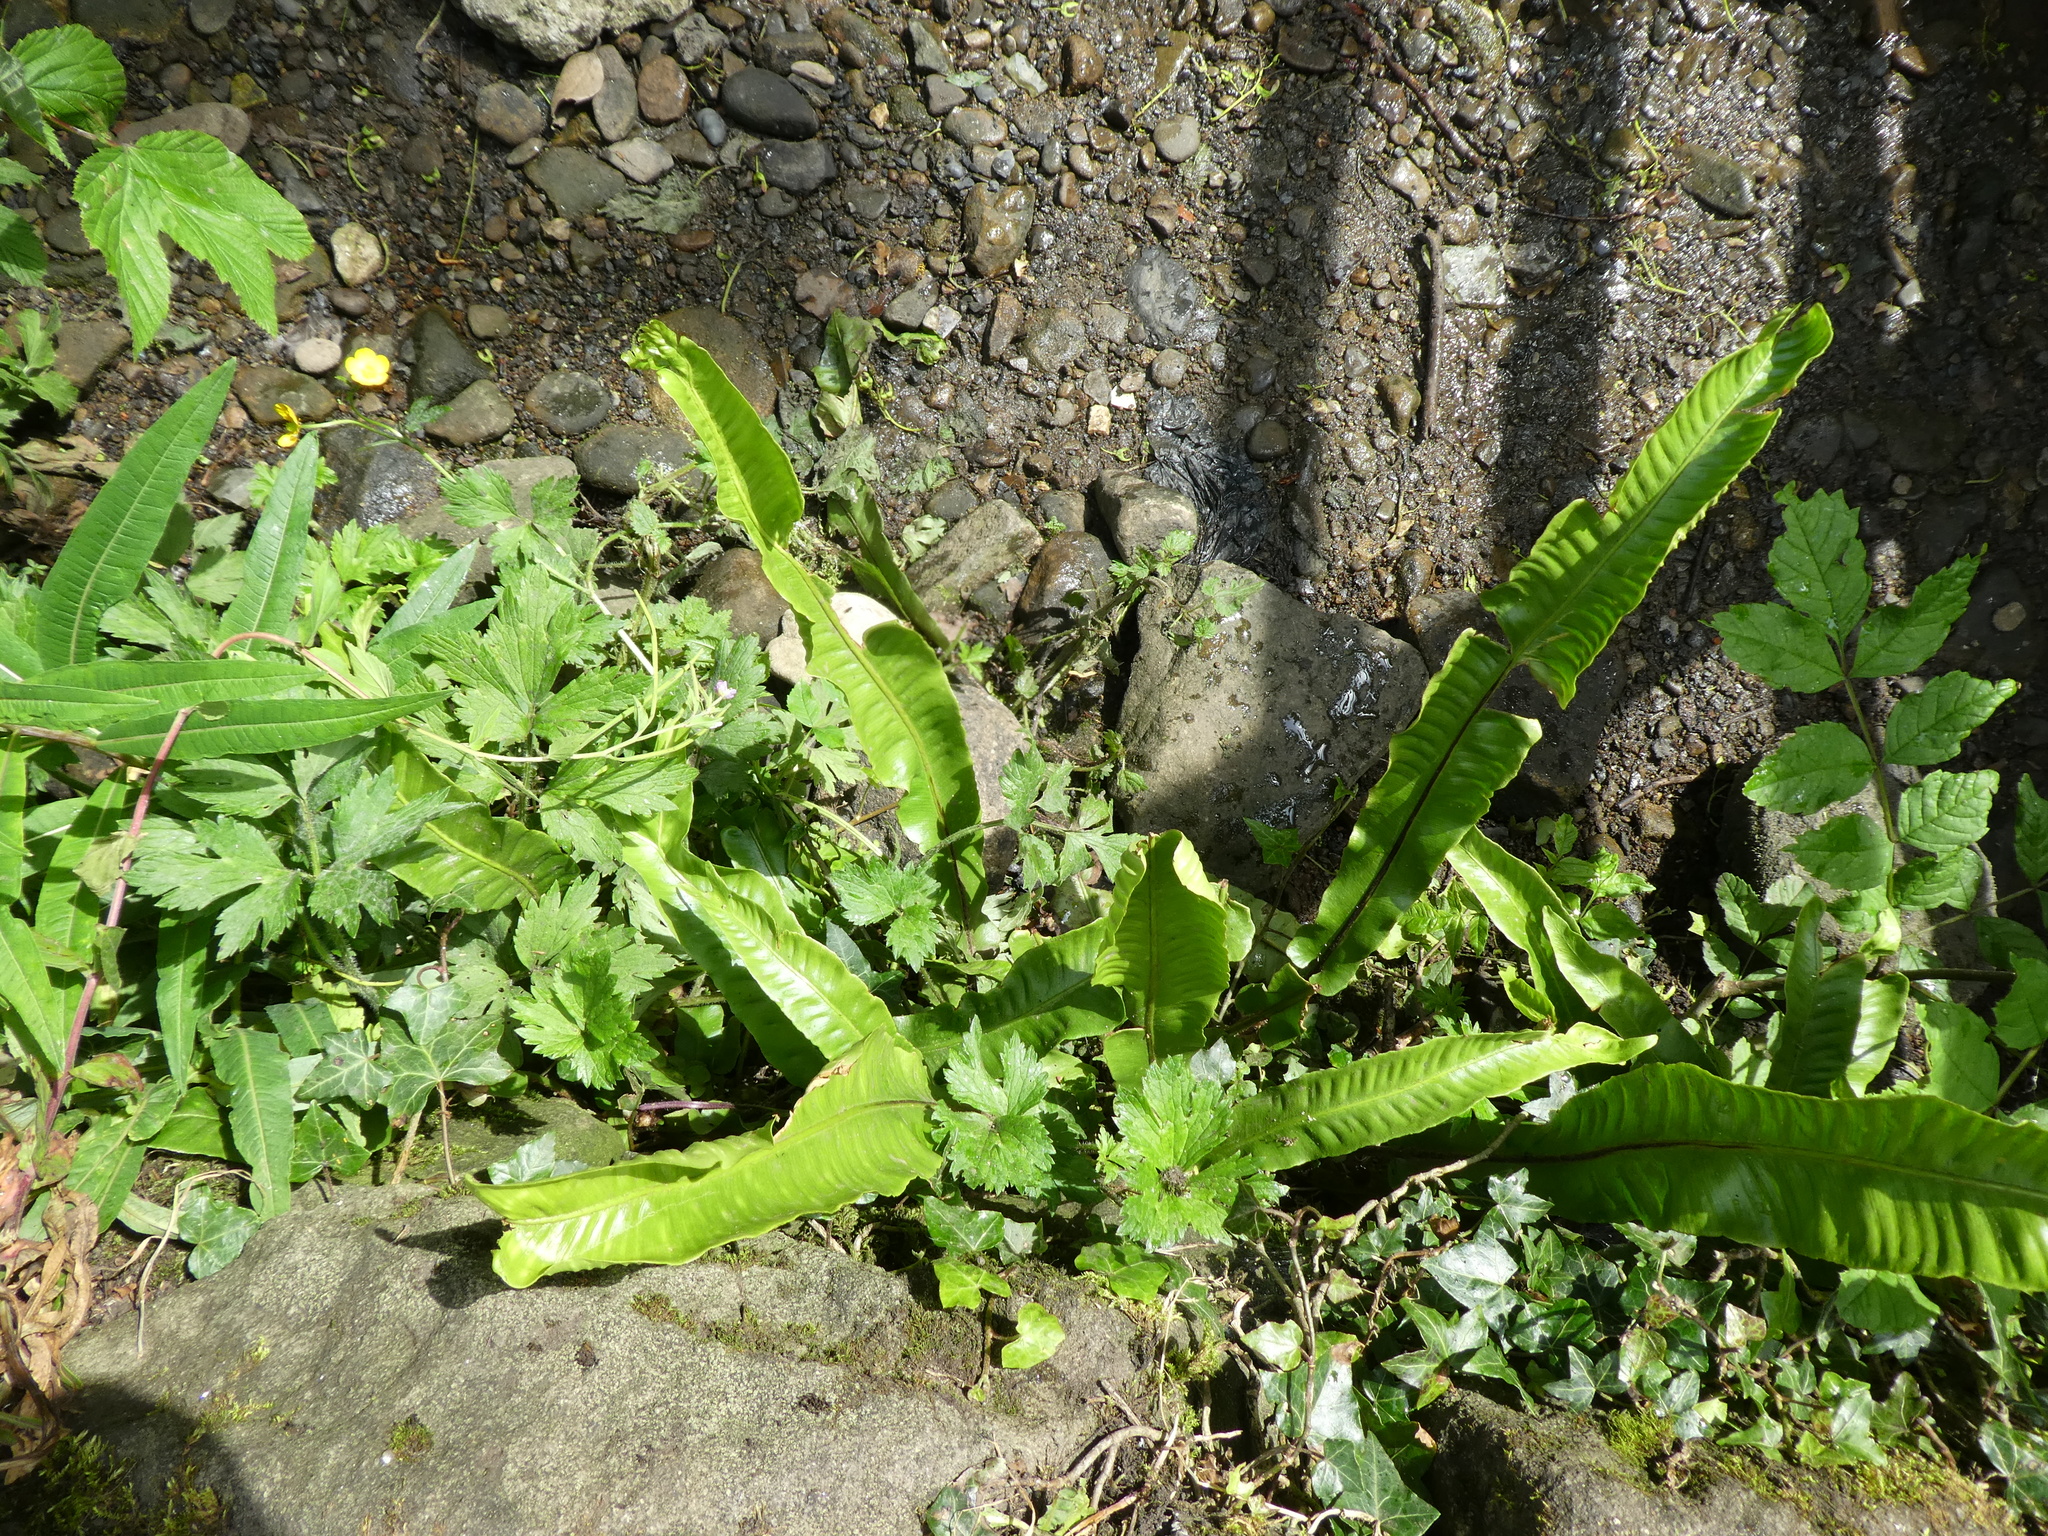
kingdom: Plantae
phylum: Tracheophyta
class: Polypodiopsida
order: Polypodiales
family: Aspleniaceae
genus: Asplenium
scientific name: Asplenium scolopendrium
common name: Hart's-tongue fern
